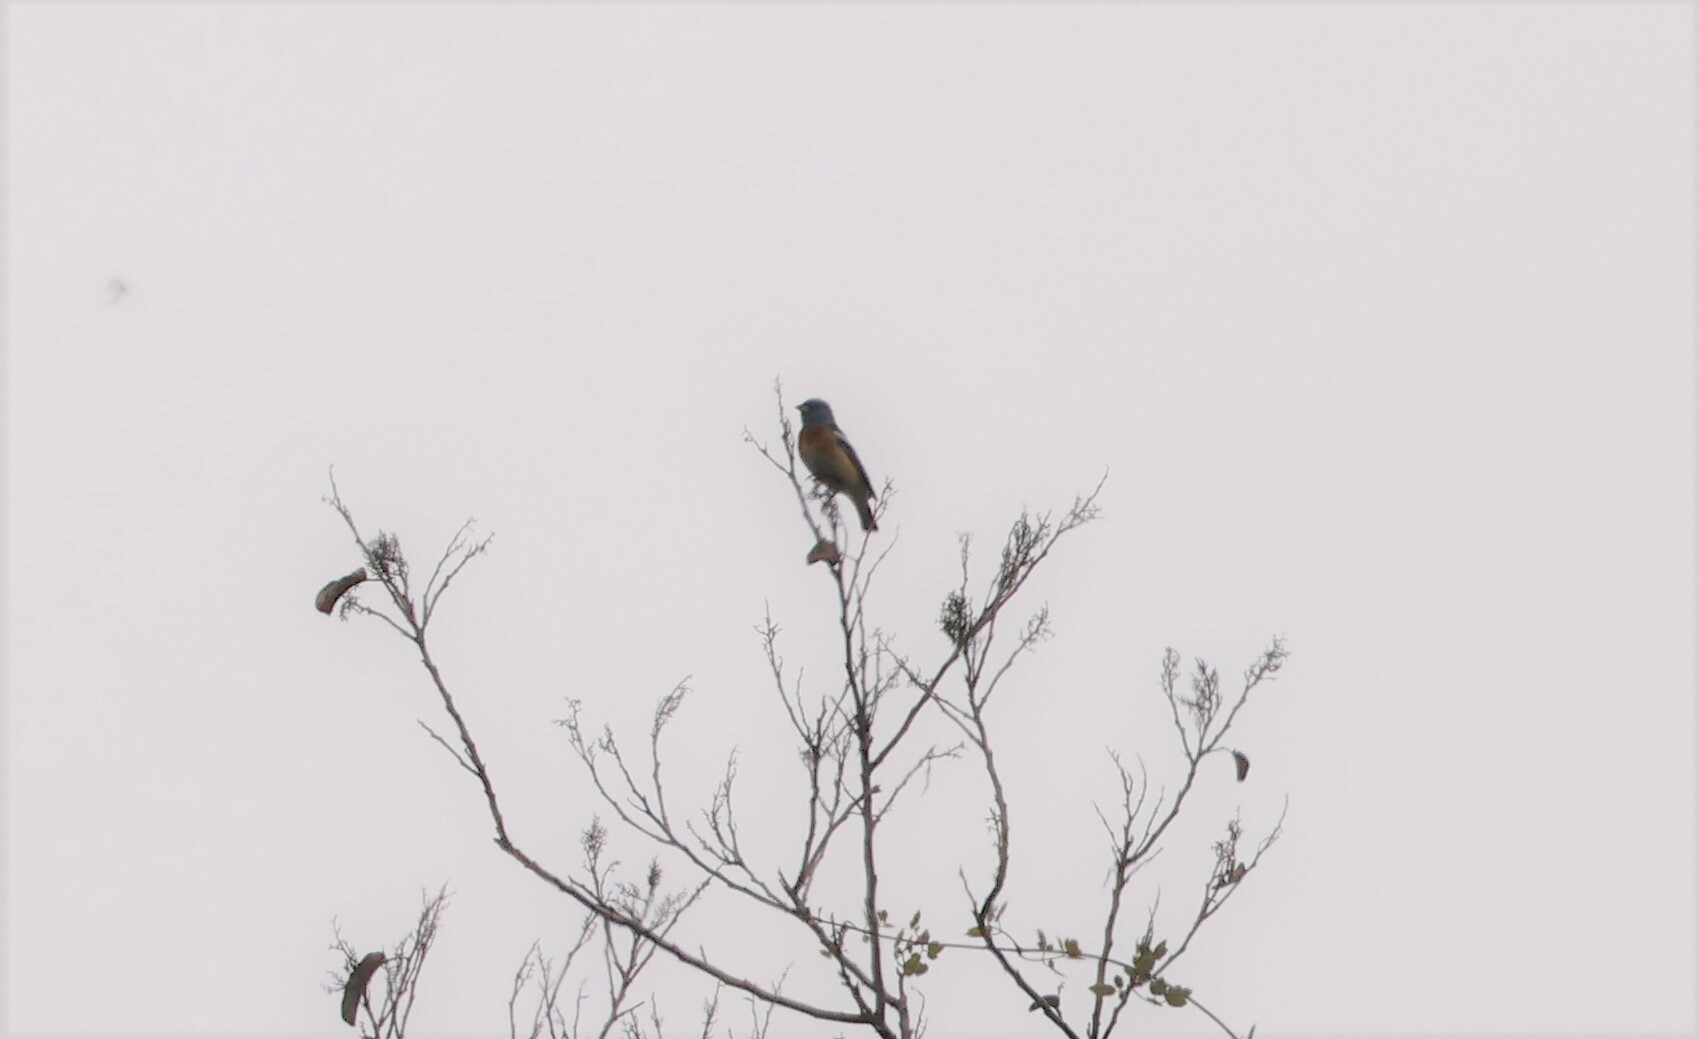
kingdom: Animalia
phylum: Chordata
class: Aves
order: Passeriformes
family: Cardinalidae
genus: Passerina
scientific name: Passerina amoena
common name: Lazuli bunting
